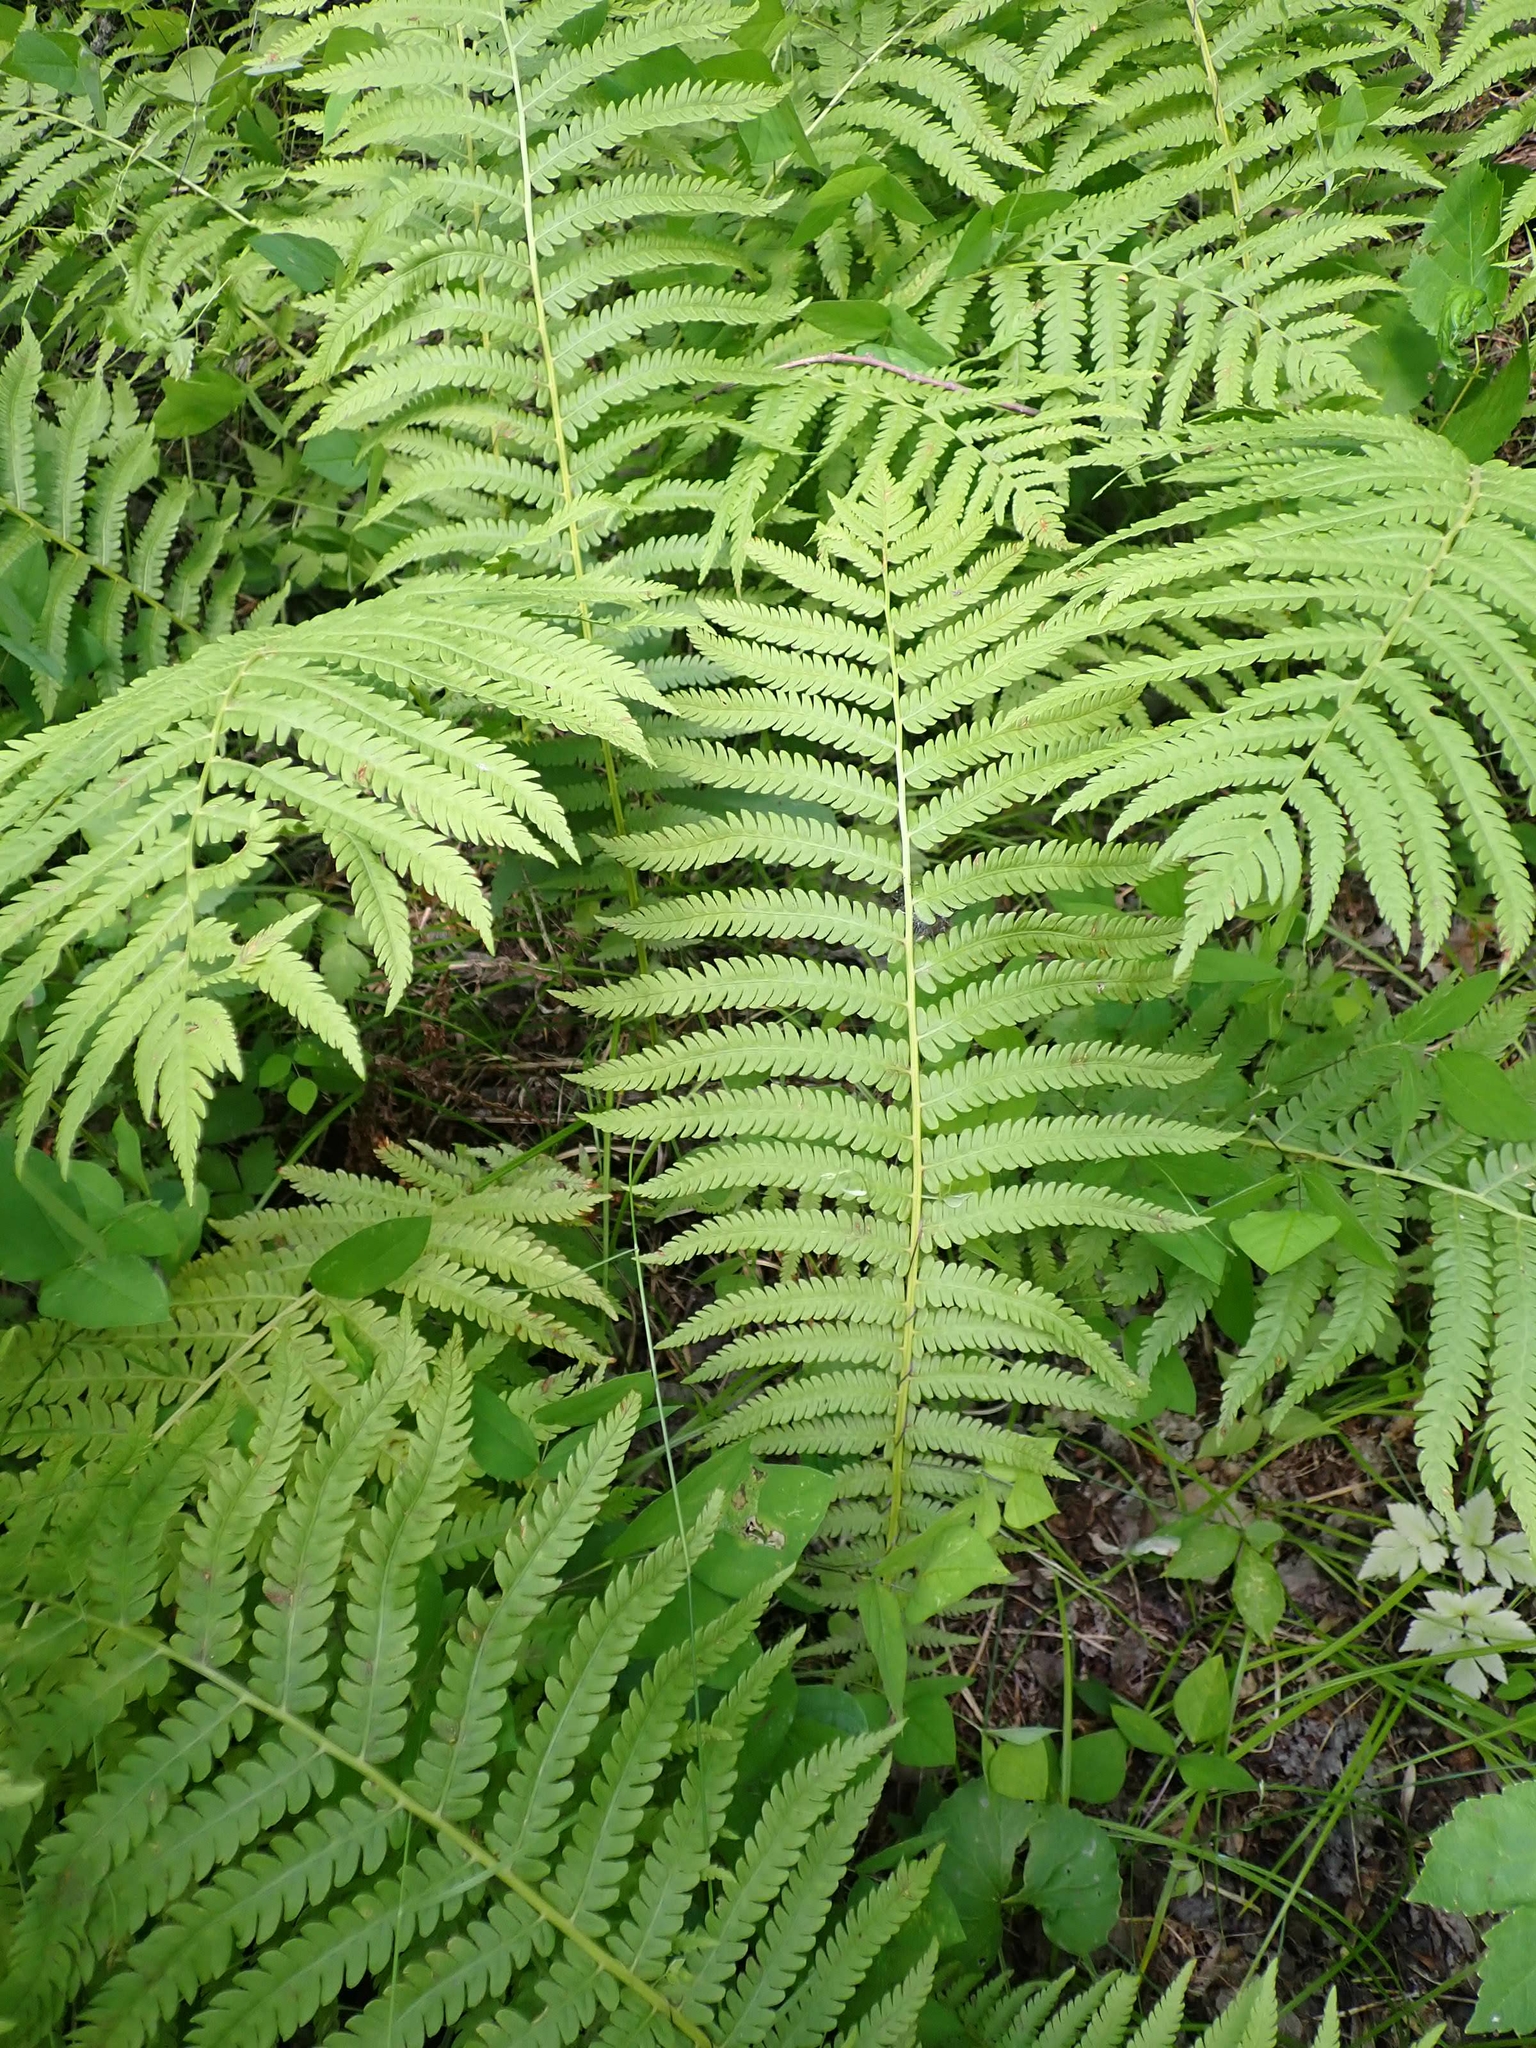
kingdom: Plantae
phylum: Tracheophyta
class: Polypodiopsida
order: Polypodiales
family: Onocleaceae
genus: Matteuccia
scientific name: Matteuccia struthiopteris
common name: Ostrich fern
